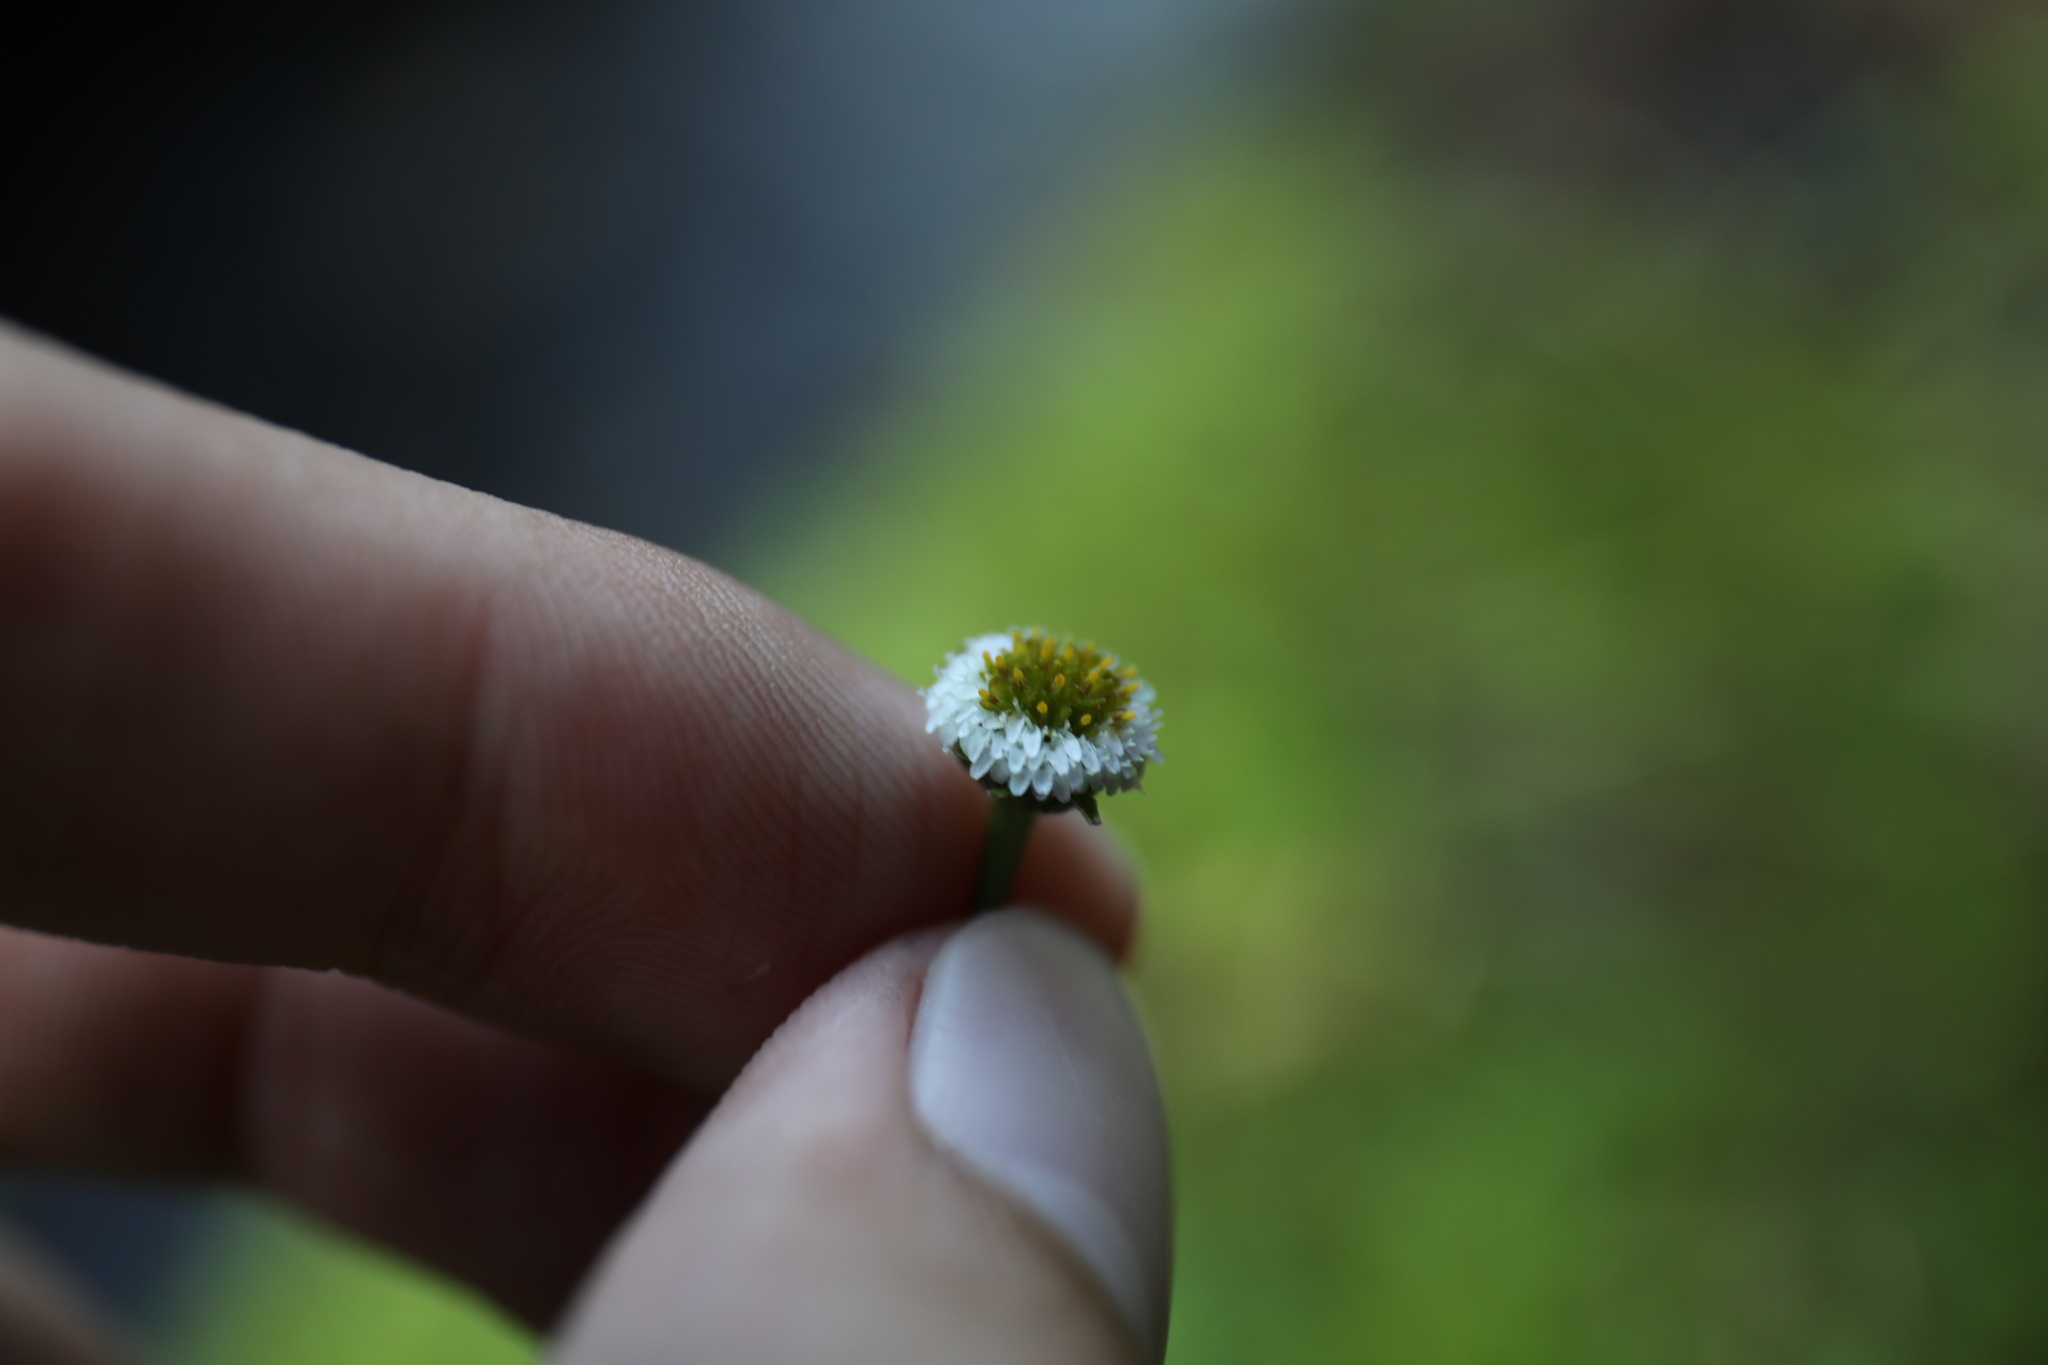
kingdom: Plantae
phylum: Tracheophyta
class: Magnoliopsida
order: Asterales
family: Asteraceae
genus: Myriactis
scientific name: Myriactis humilis
